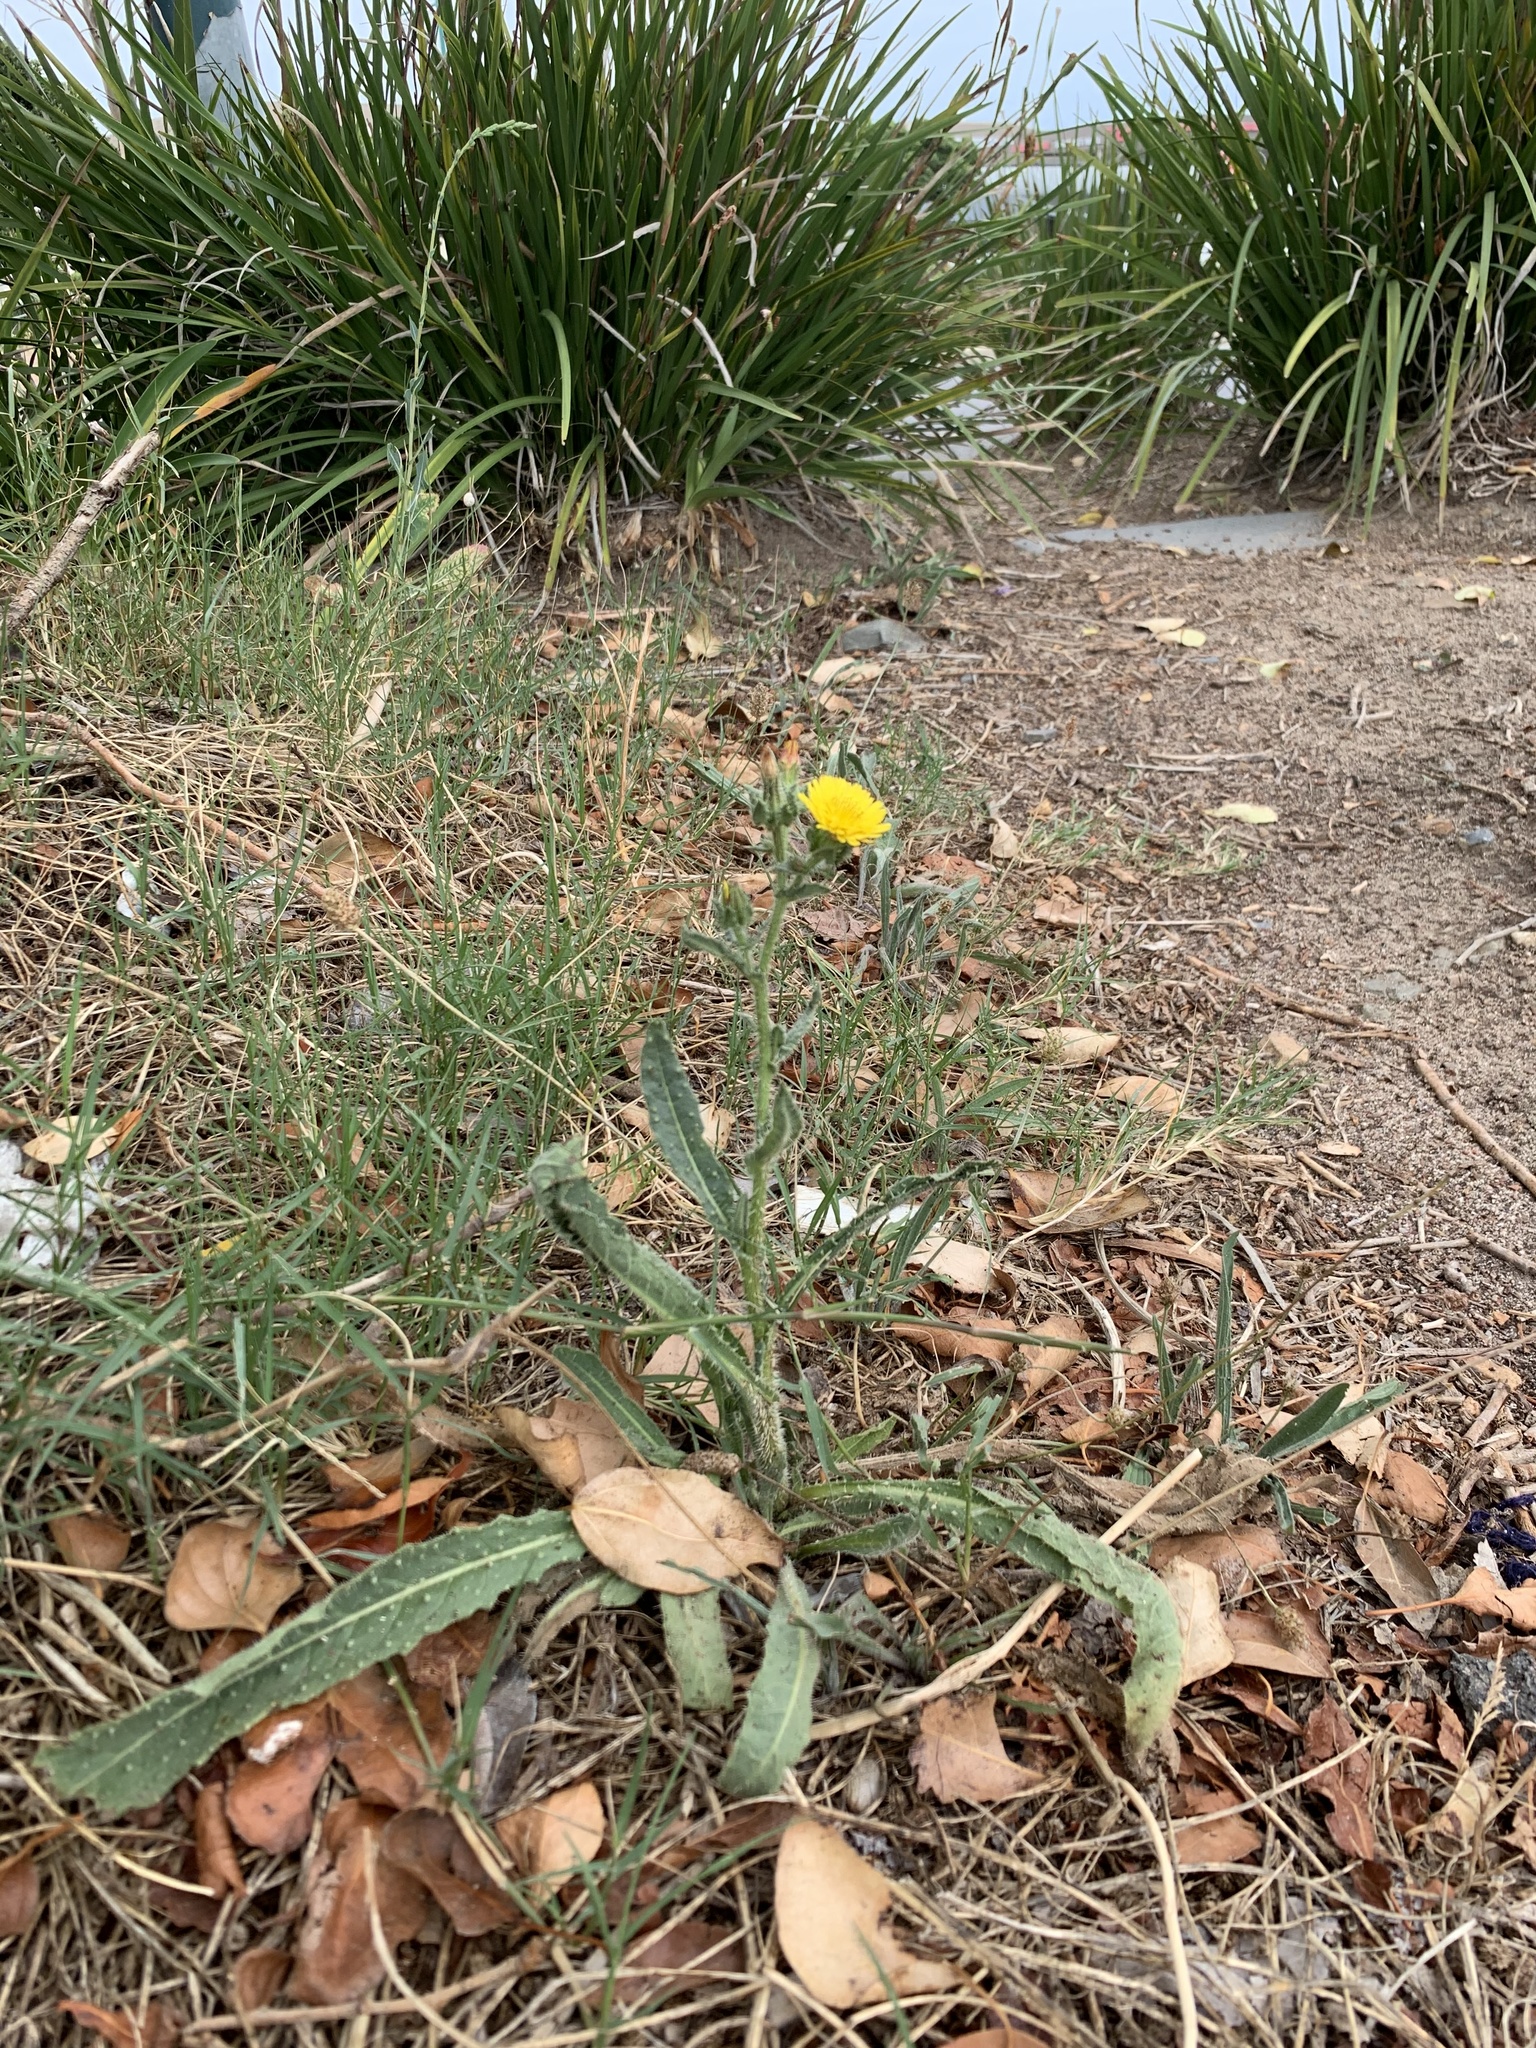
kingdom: Plantae
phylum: Tracheophyta
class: Magnoliopsida
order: Asterales
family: Asteraceae
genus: Helminthotheca
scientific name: Helminthotheca echioides
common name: Ox-tongue
